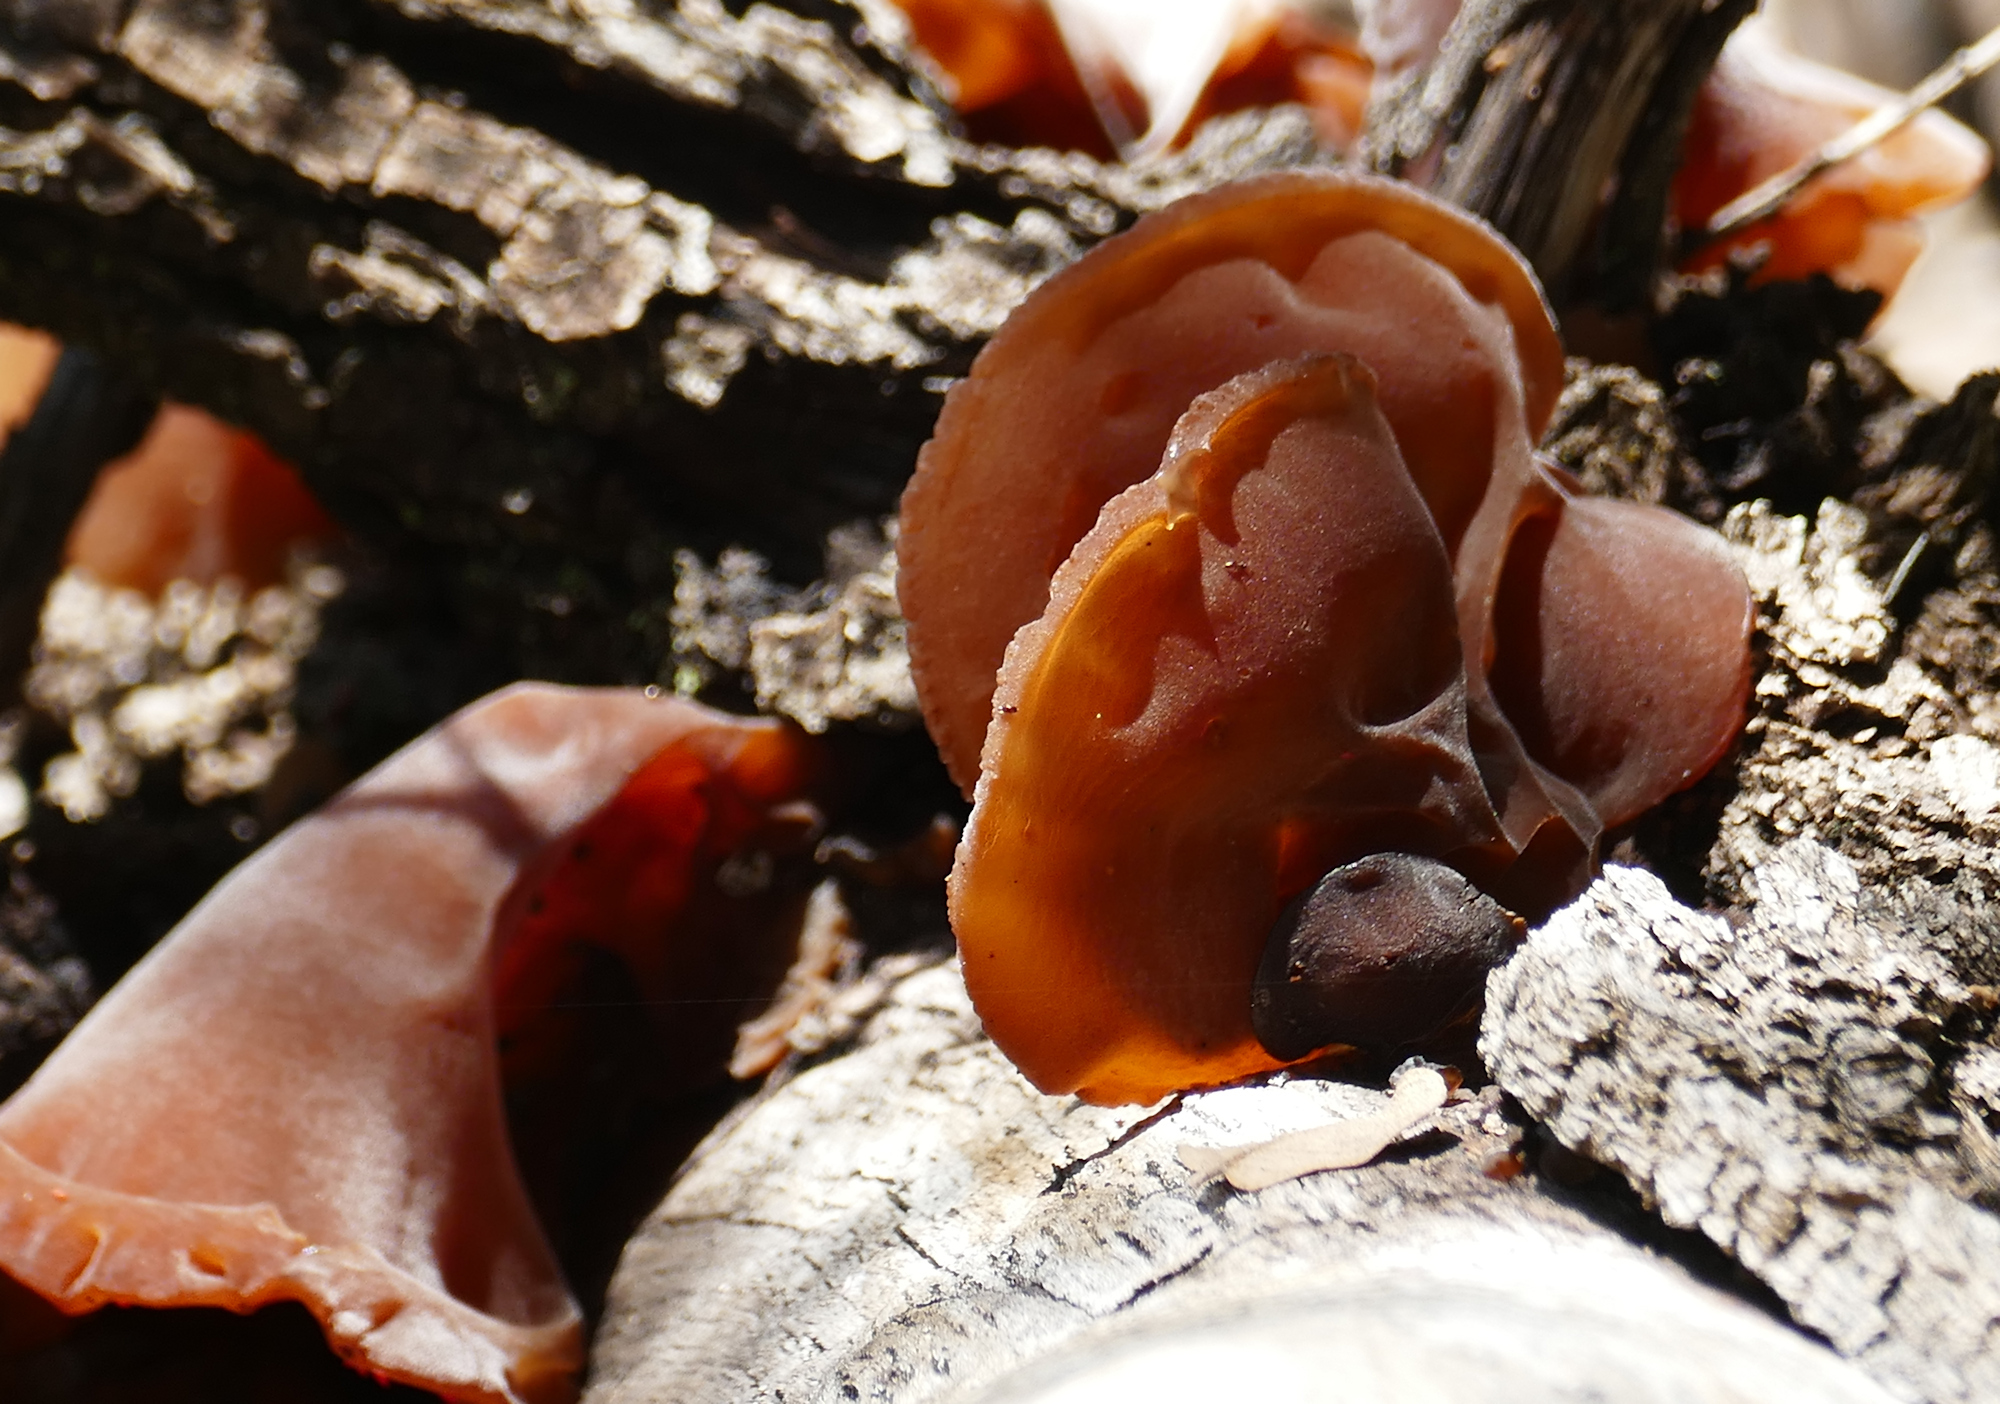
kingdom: Fungi
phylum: Basidiomycota
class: Agaricomycetes
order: Auriculariales
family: Auriculariaceae
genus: Auricularia
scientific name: Auricularia angiospermarum
